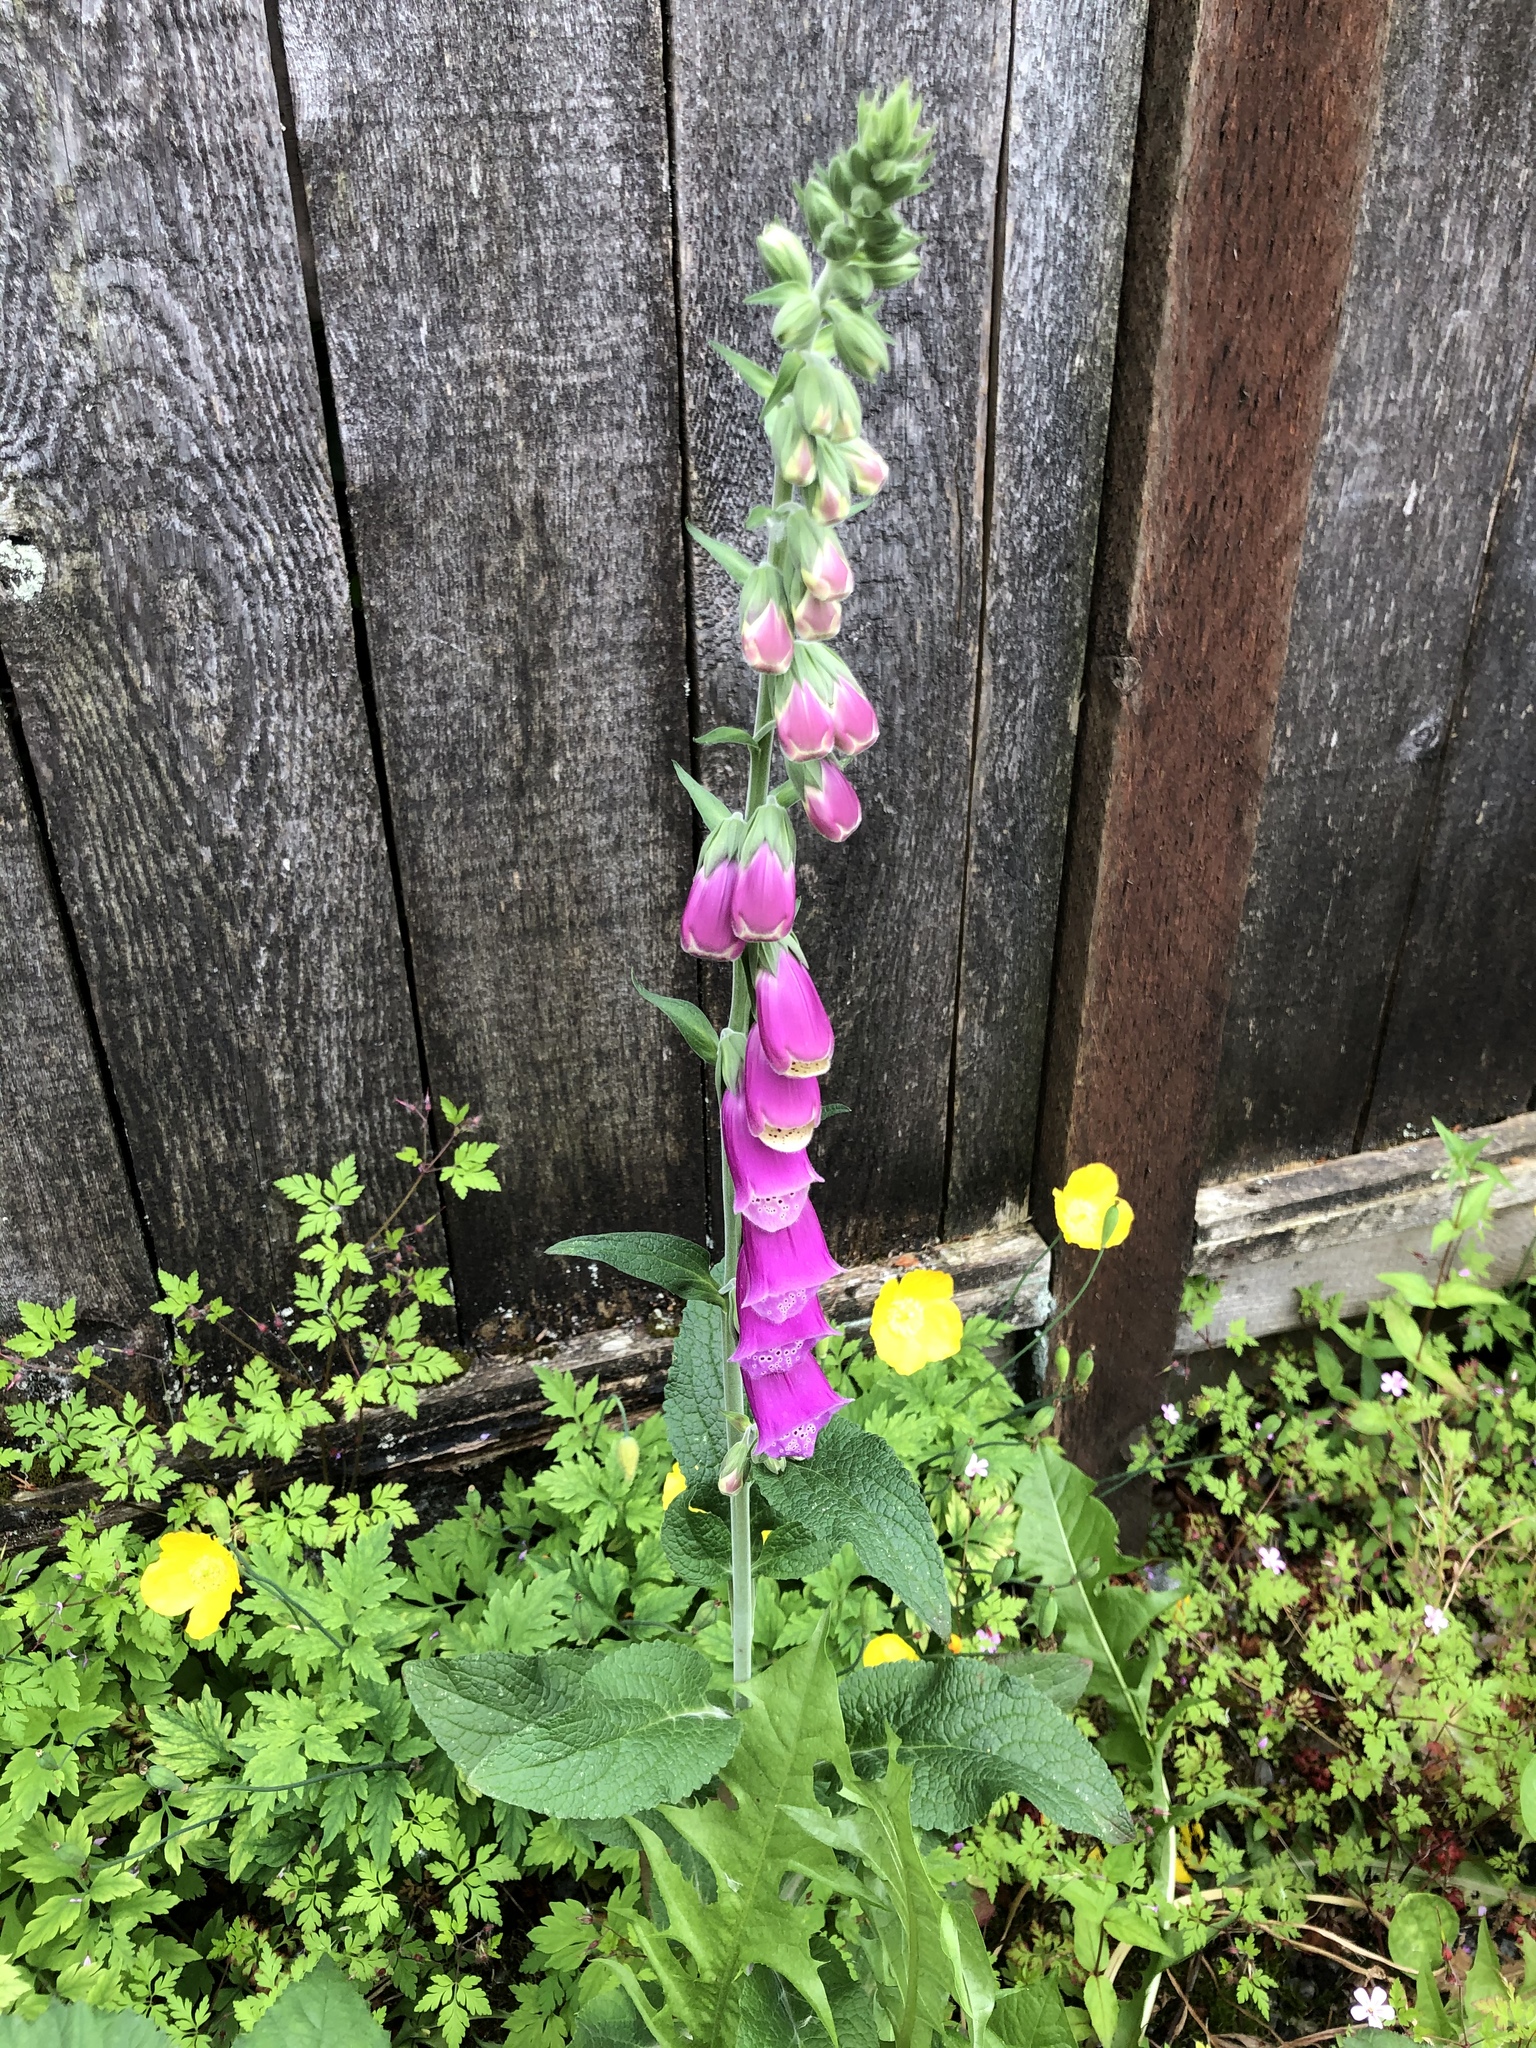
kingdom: Plantae
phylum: Tracheophyta
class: Magnoliopsida
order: Lamiales
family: Plantaginaceae
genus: Digitalis
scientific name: Digitalis purpurea
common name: Foxglove
